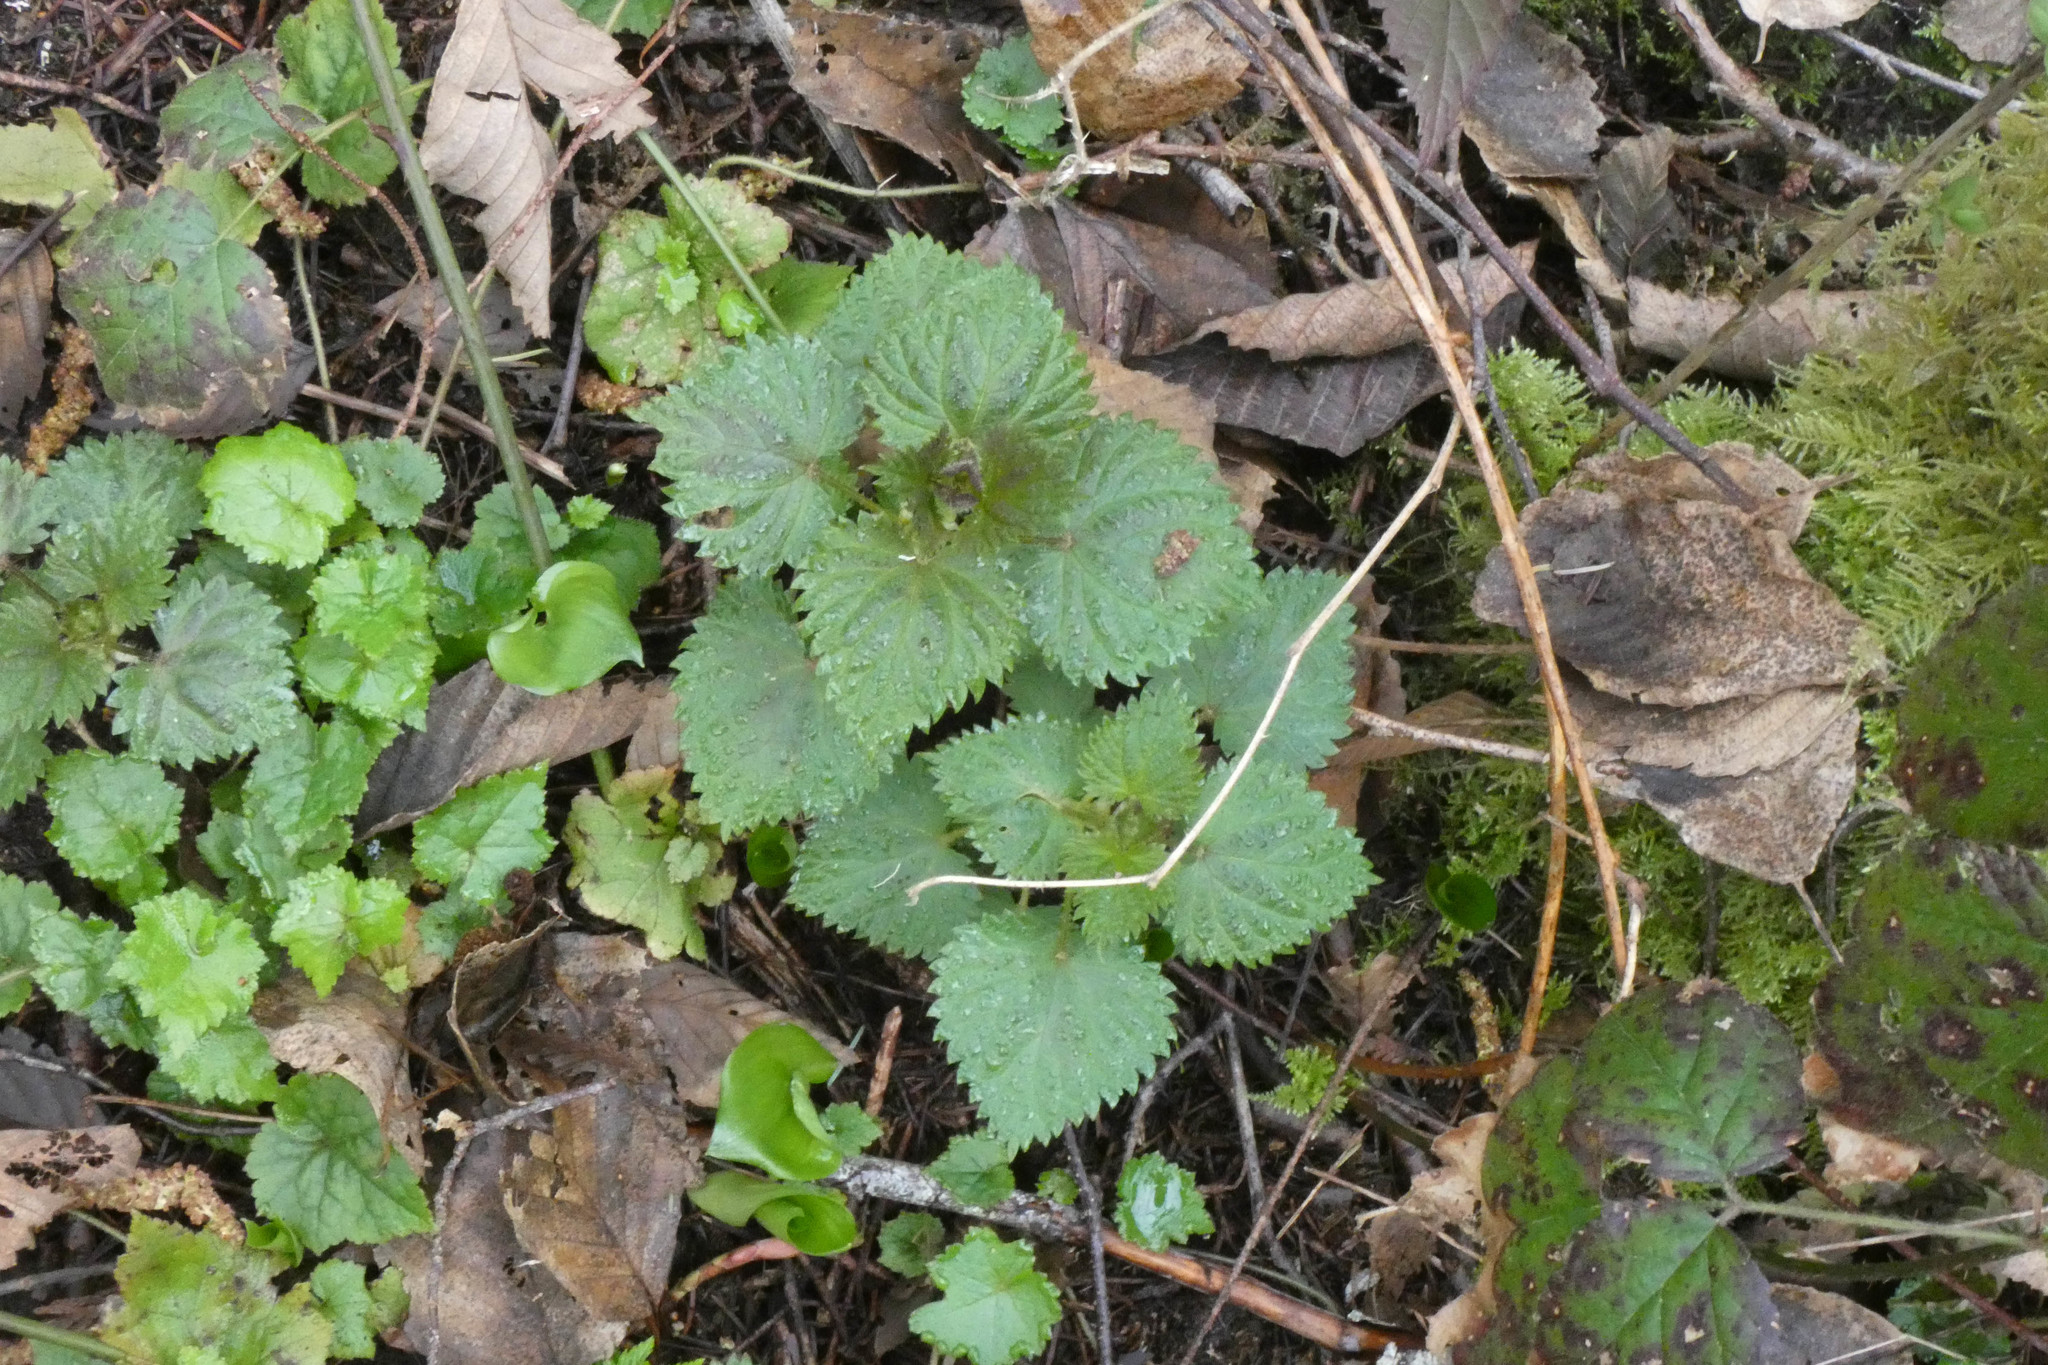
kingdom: Plantae
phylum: Tracheophyta
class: Magnoliopsida
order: Rosales
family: Urticaceae
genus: Urtica
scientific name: Urtica gracilis
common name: Slender stinging nettle
